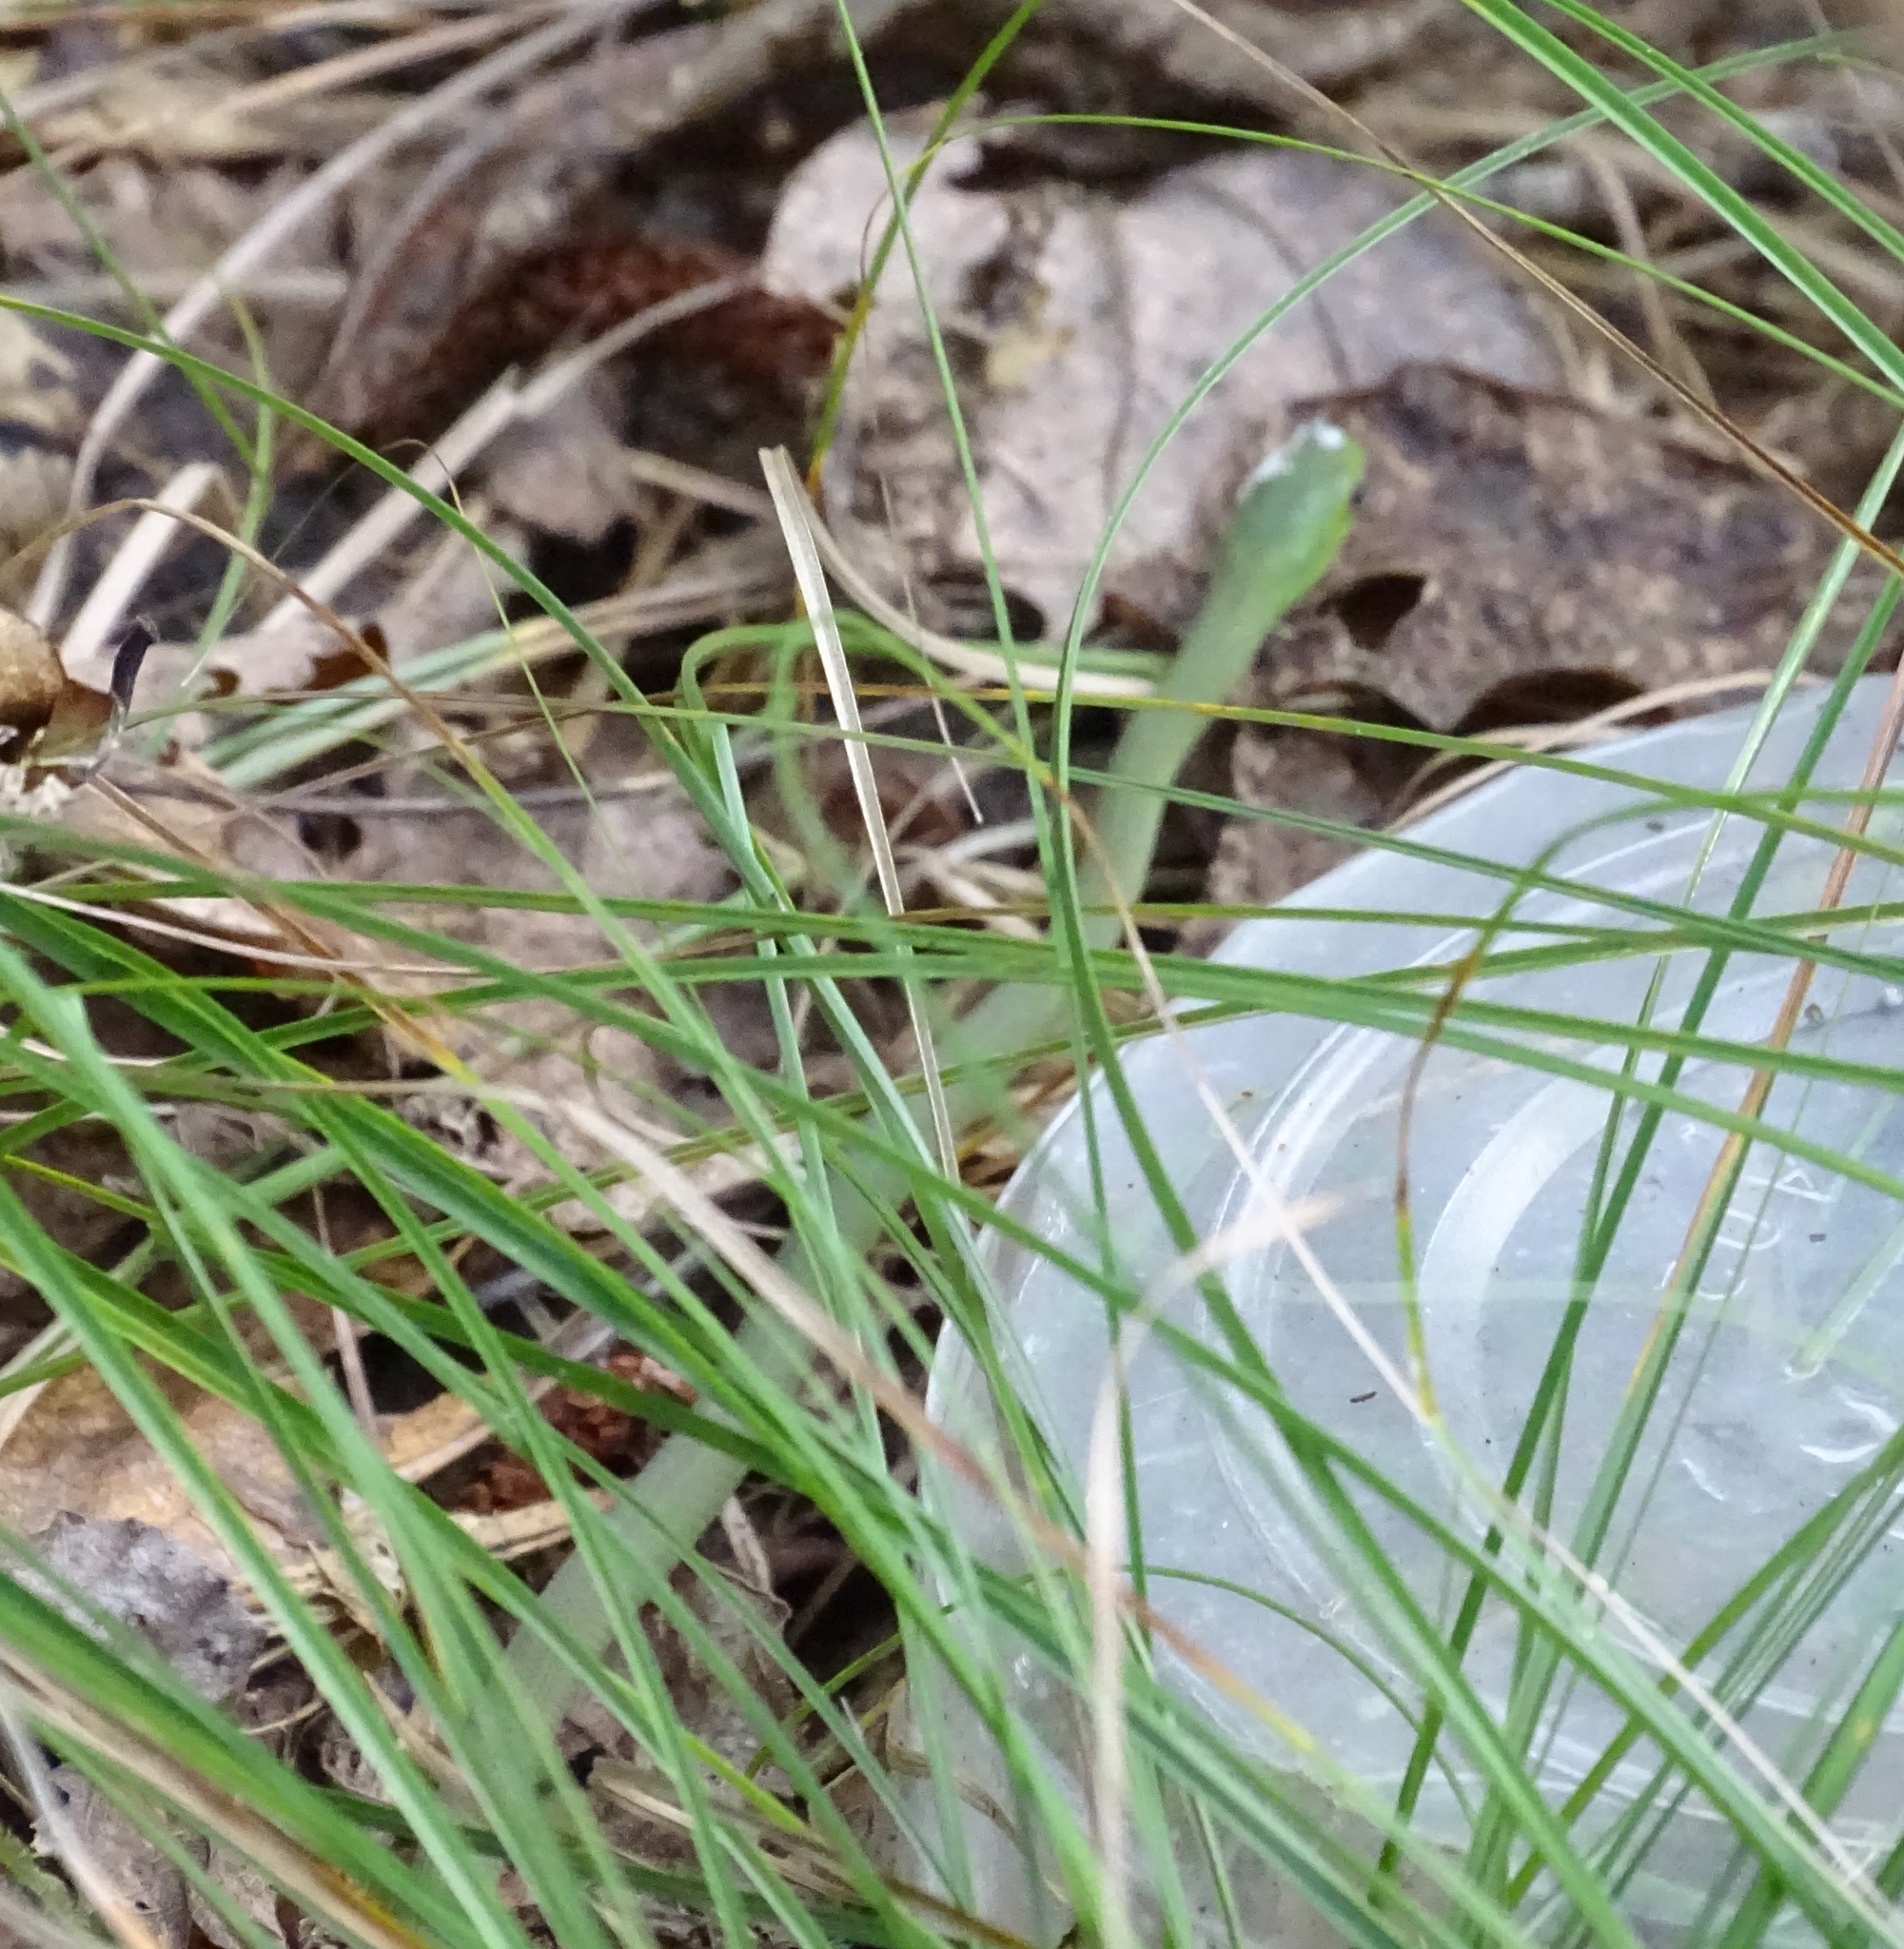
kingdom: Animalia
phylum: Chordata
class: Squamata
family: Colubridae
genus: Opheodrys
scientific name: Opheodrys aestivus
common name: Rough greensnake
